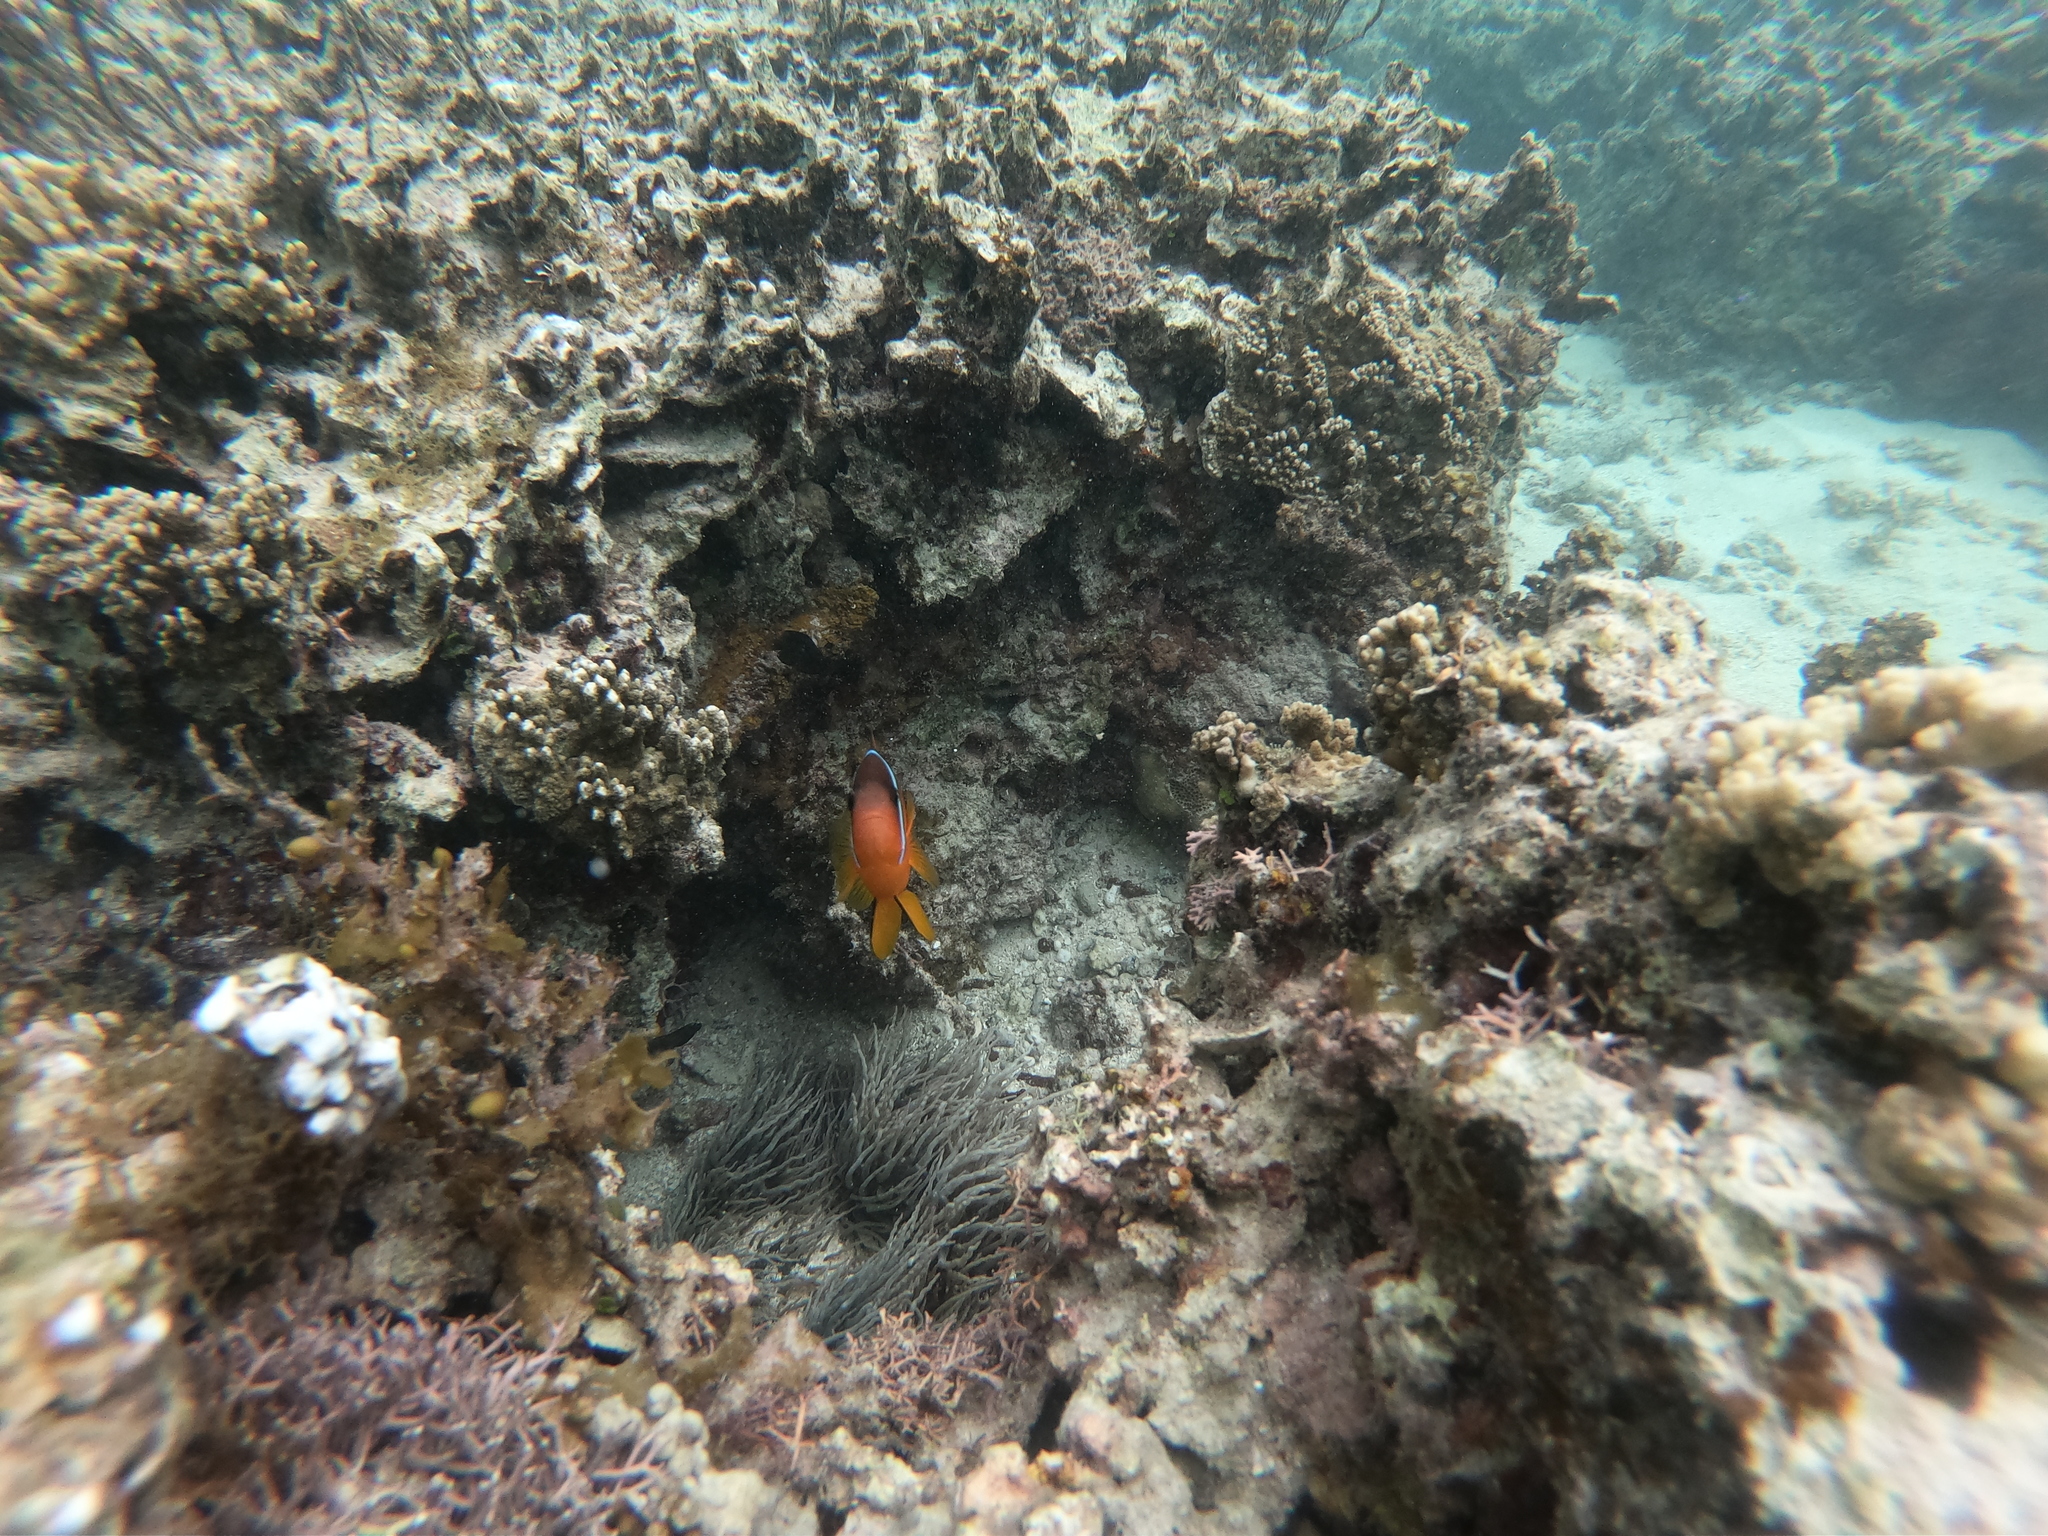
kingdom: Animalia
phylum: Chordata
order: Perciformes
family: Pomacentridae
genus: Amphiprion
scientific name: Amphiprion barberi
